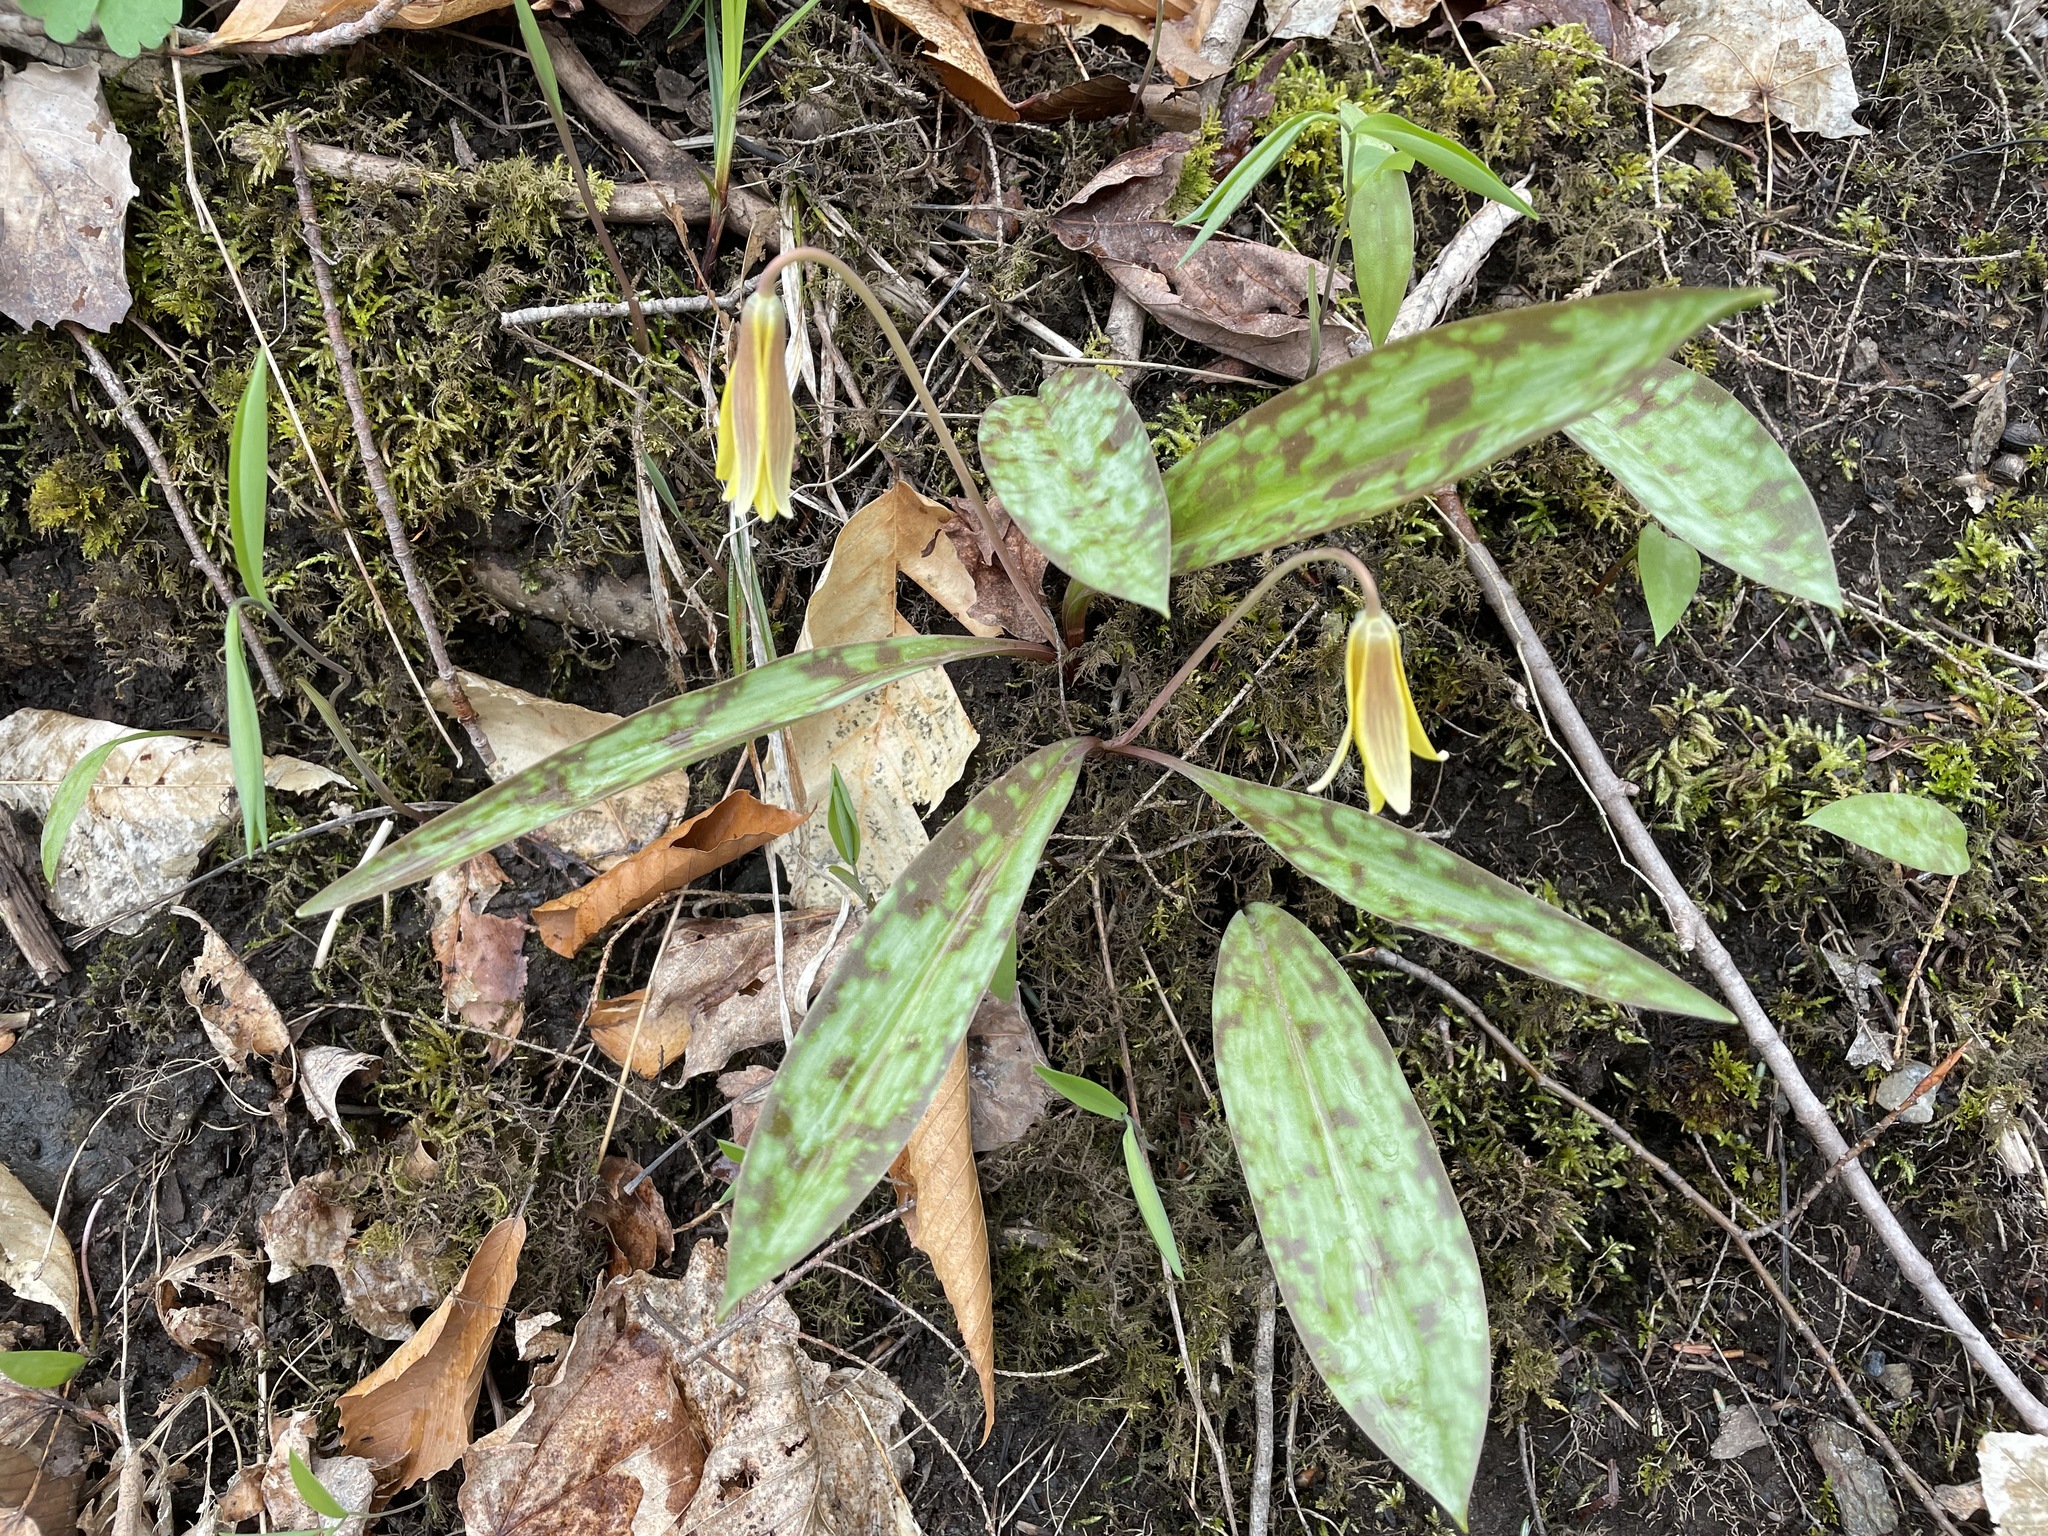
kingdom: Plantae
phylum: Tracheophyta
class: Liliopsida
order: Liliales
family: Liliaceae
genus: Erythronium
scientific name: Erythronium americanum
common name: Yellow adder's-tongue
